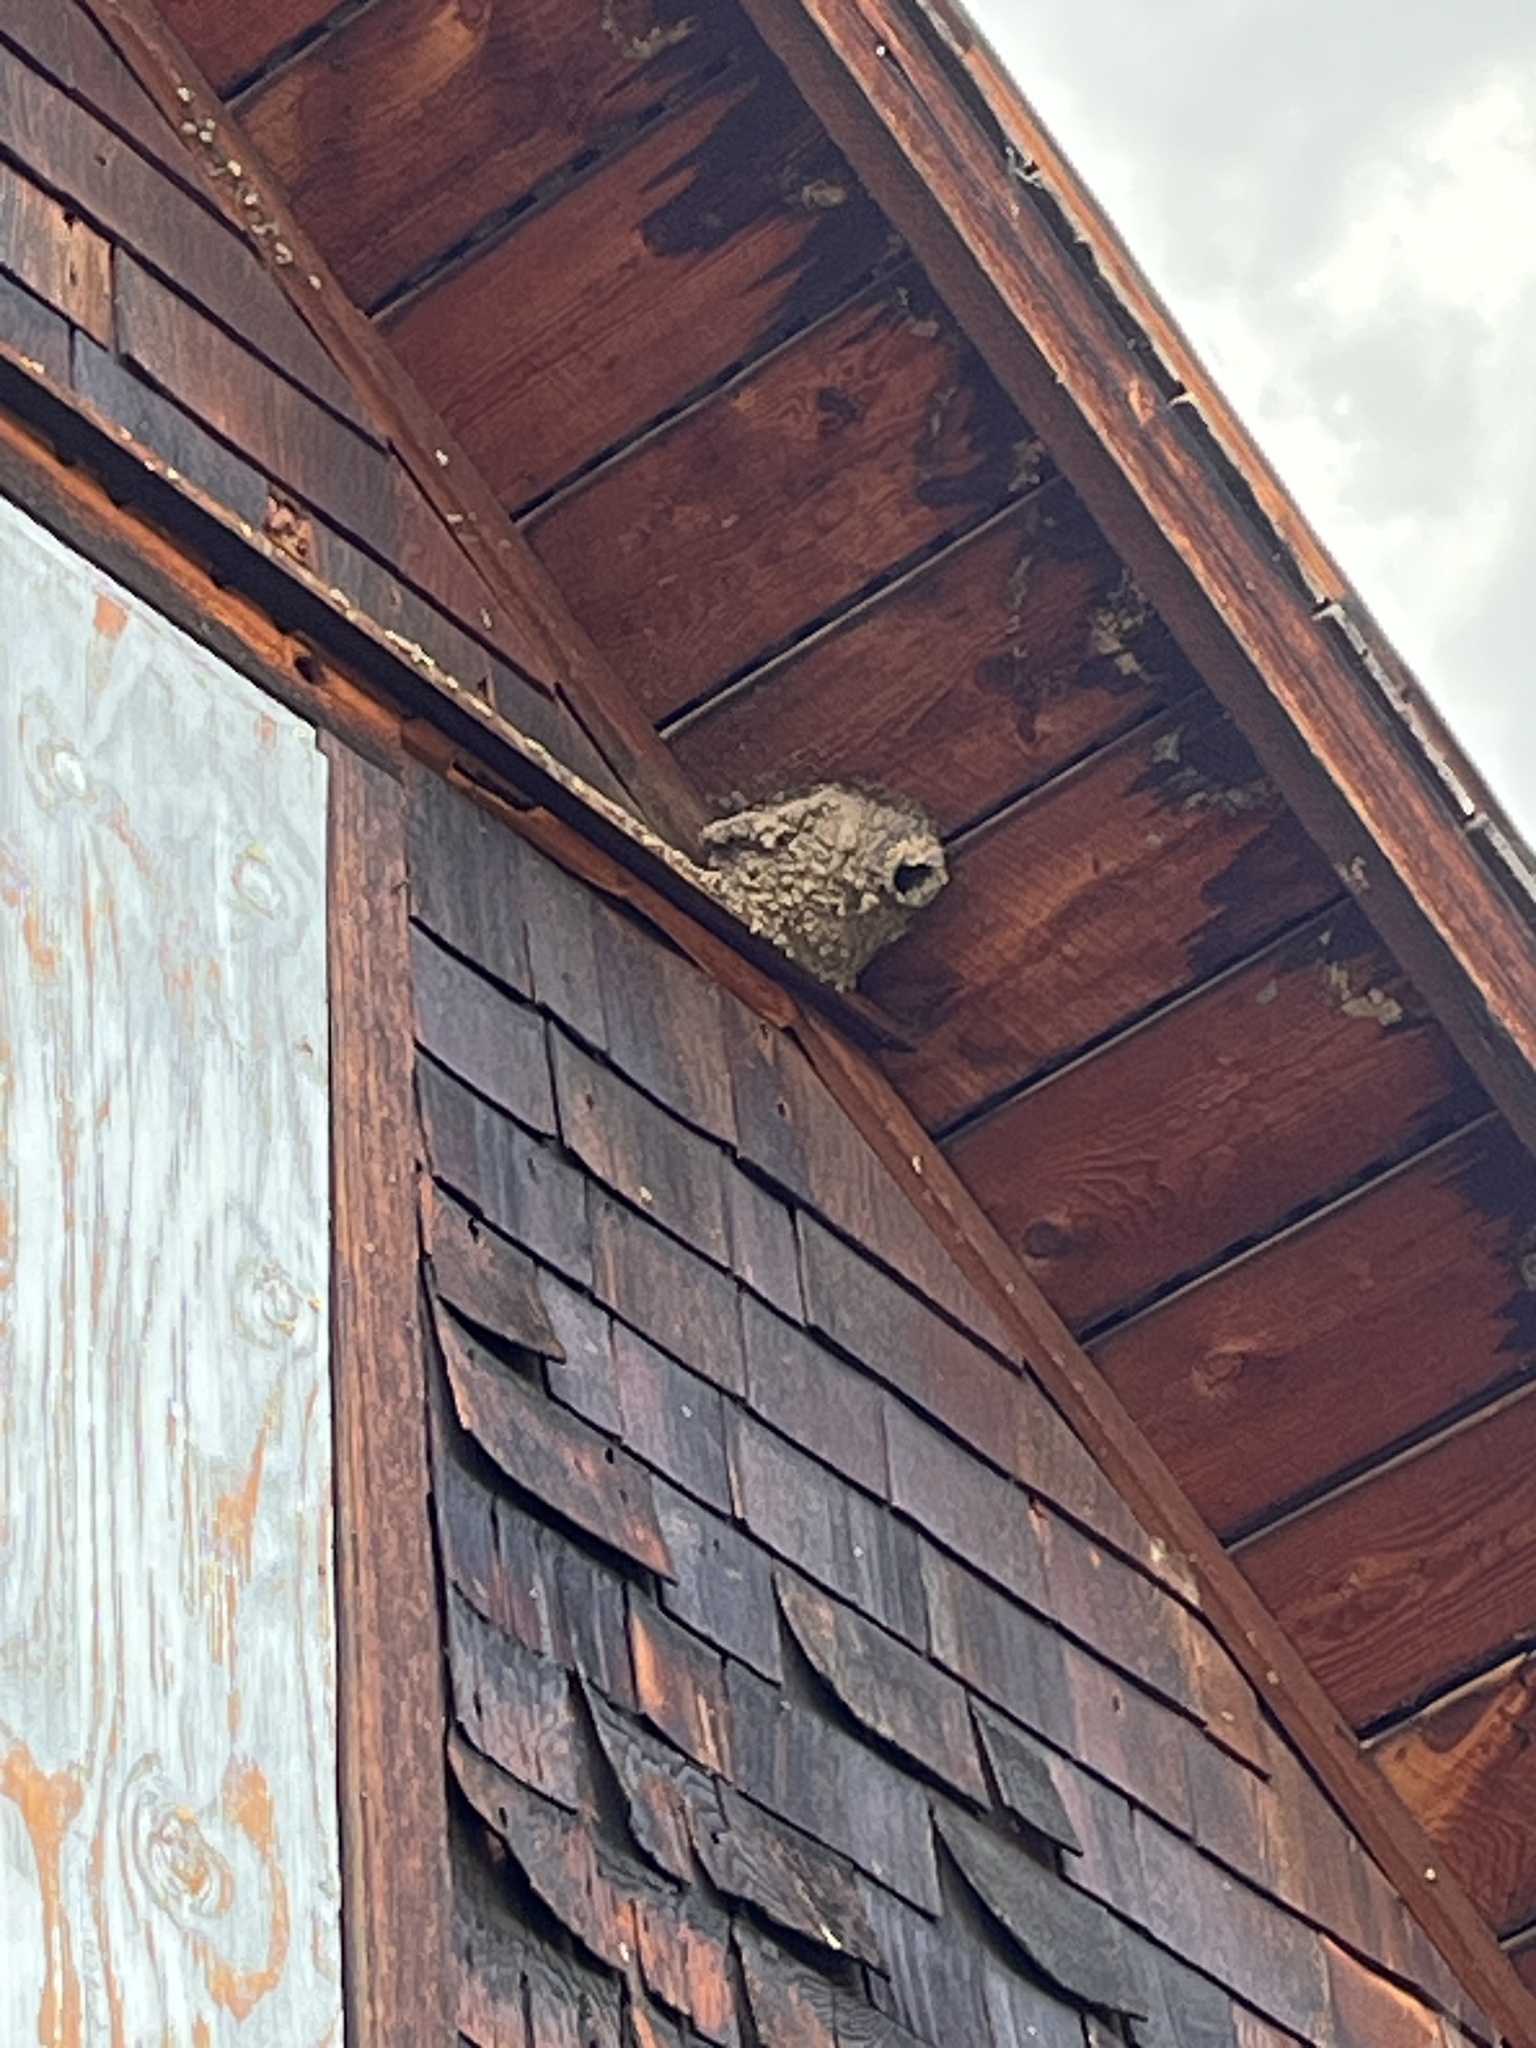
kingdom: Animalia
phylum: Chordata
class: Aves
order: Passeriformes
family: Hirundinidae
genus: Petrochelidon
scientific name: Petrochelidon pyrrhonota
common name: American cliff swallow
